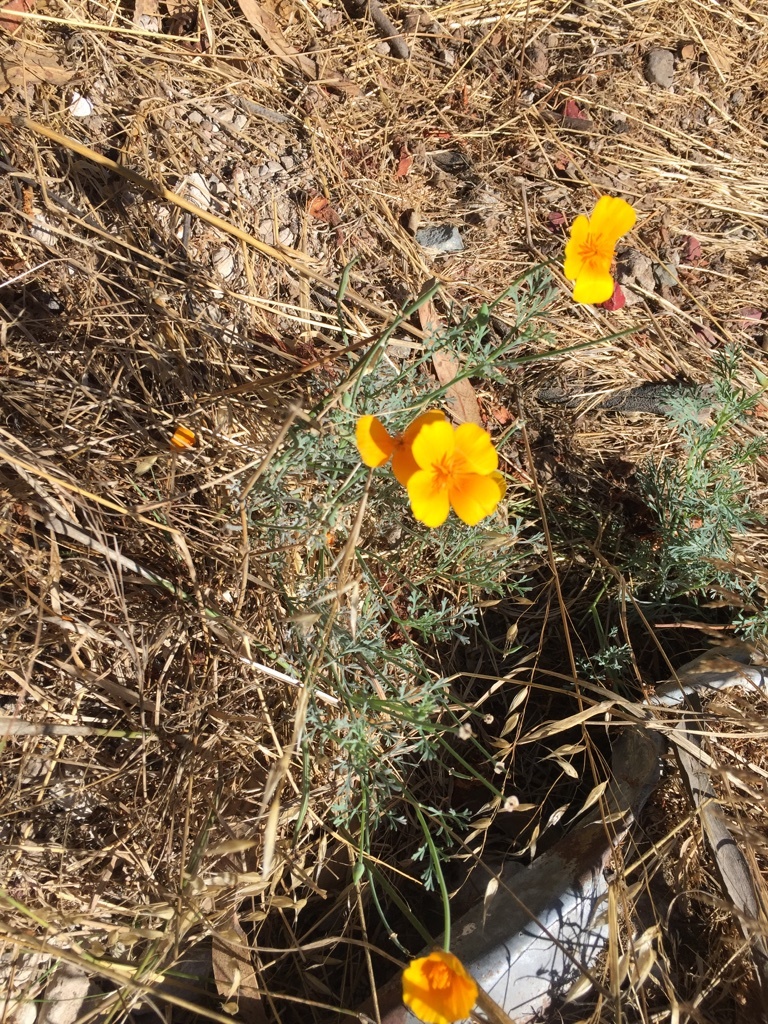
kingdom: Plantae
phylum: Tracheophyta
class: Magnoliopsida
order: Ranunculales
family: Papaveraceae
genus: Eschscholzia
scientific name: Eschscholzia californica
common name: California poppy
